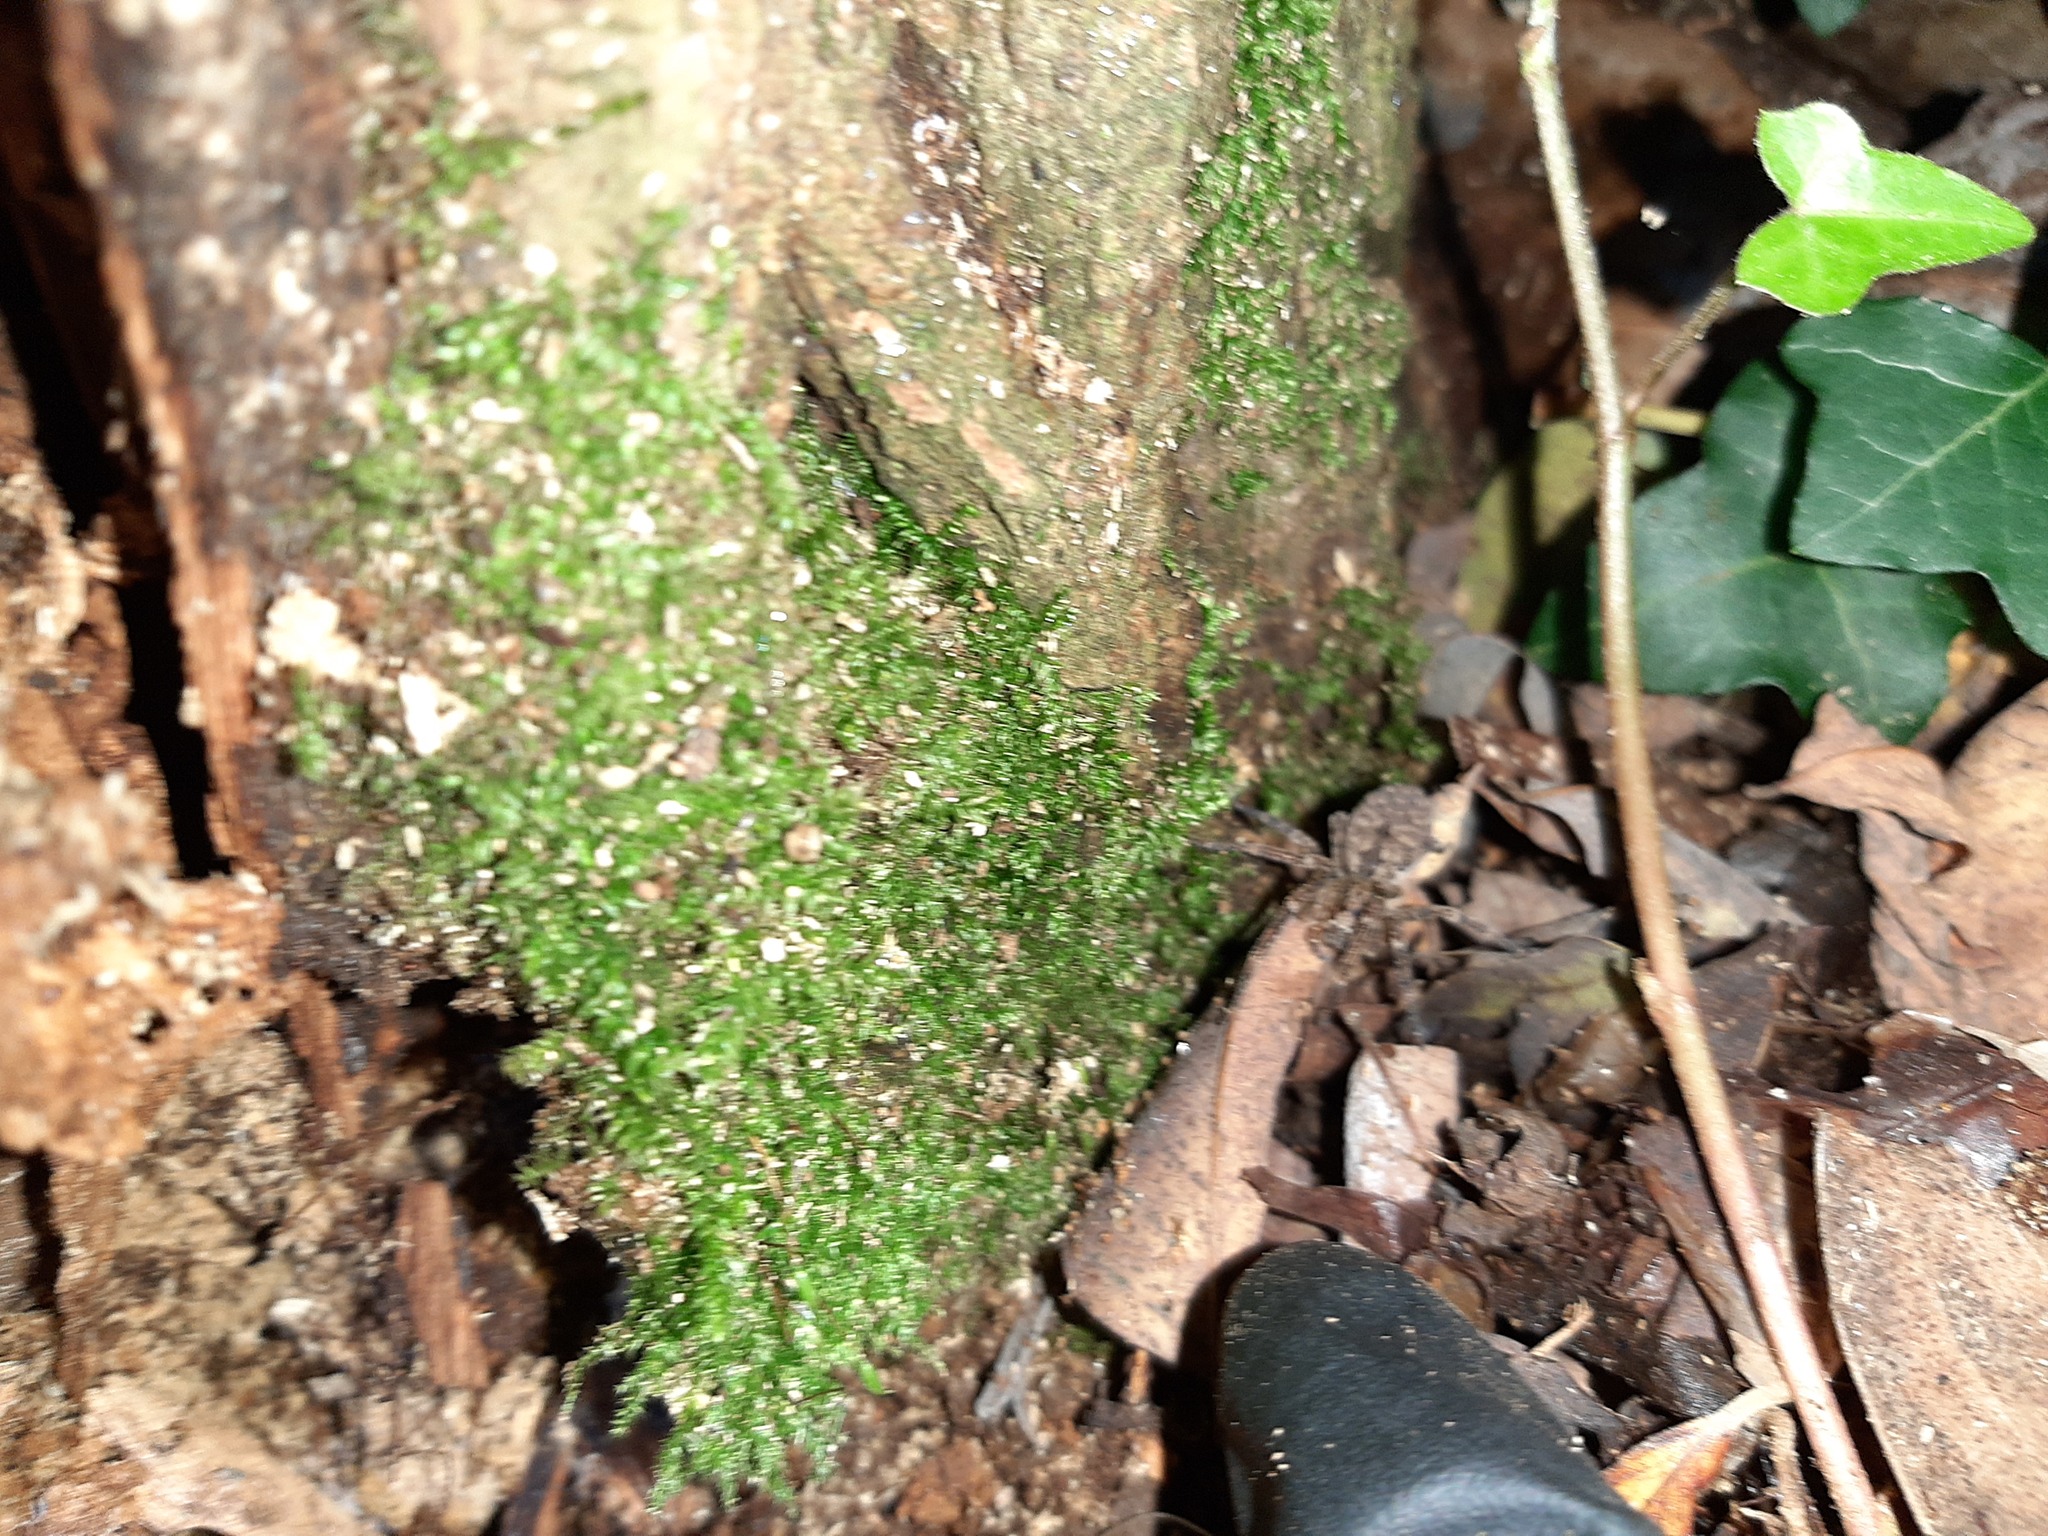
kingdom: Animalia
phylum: Arthropoda
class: Arachnida
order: Araneae
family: Zoropsidae
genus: Zoropsis
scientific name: Zoropsis spinimana
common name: Zoropsid spider
